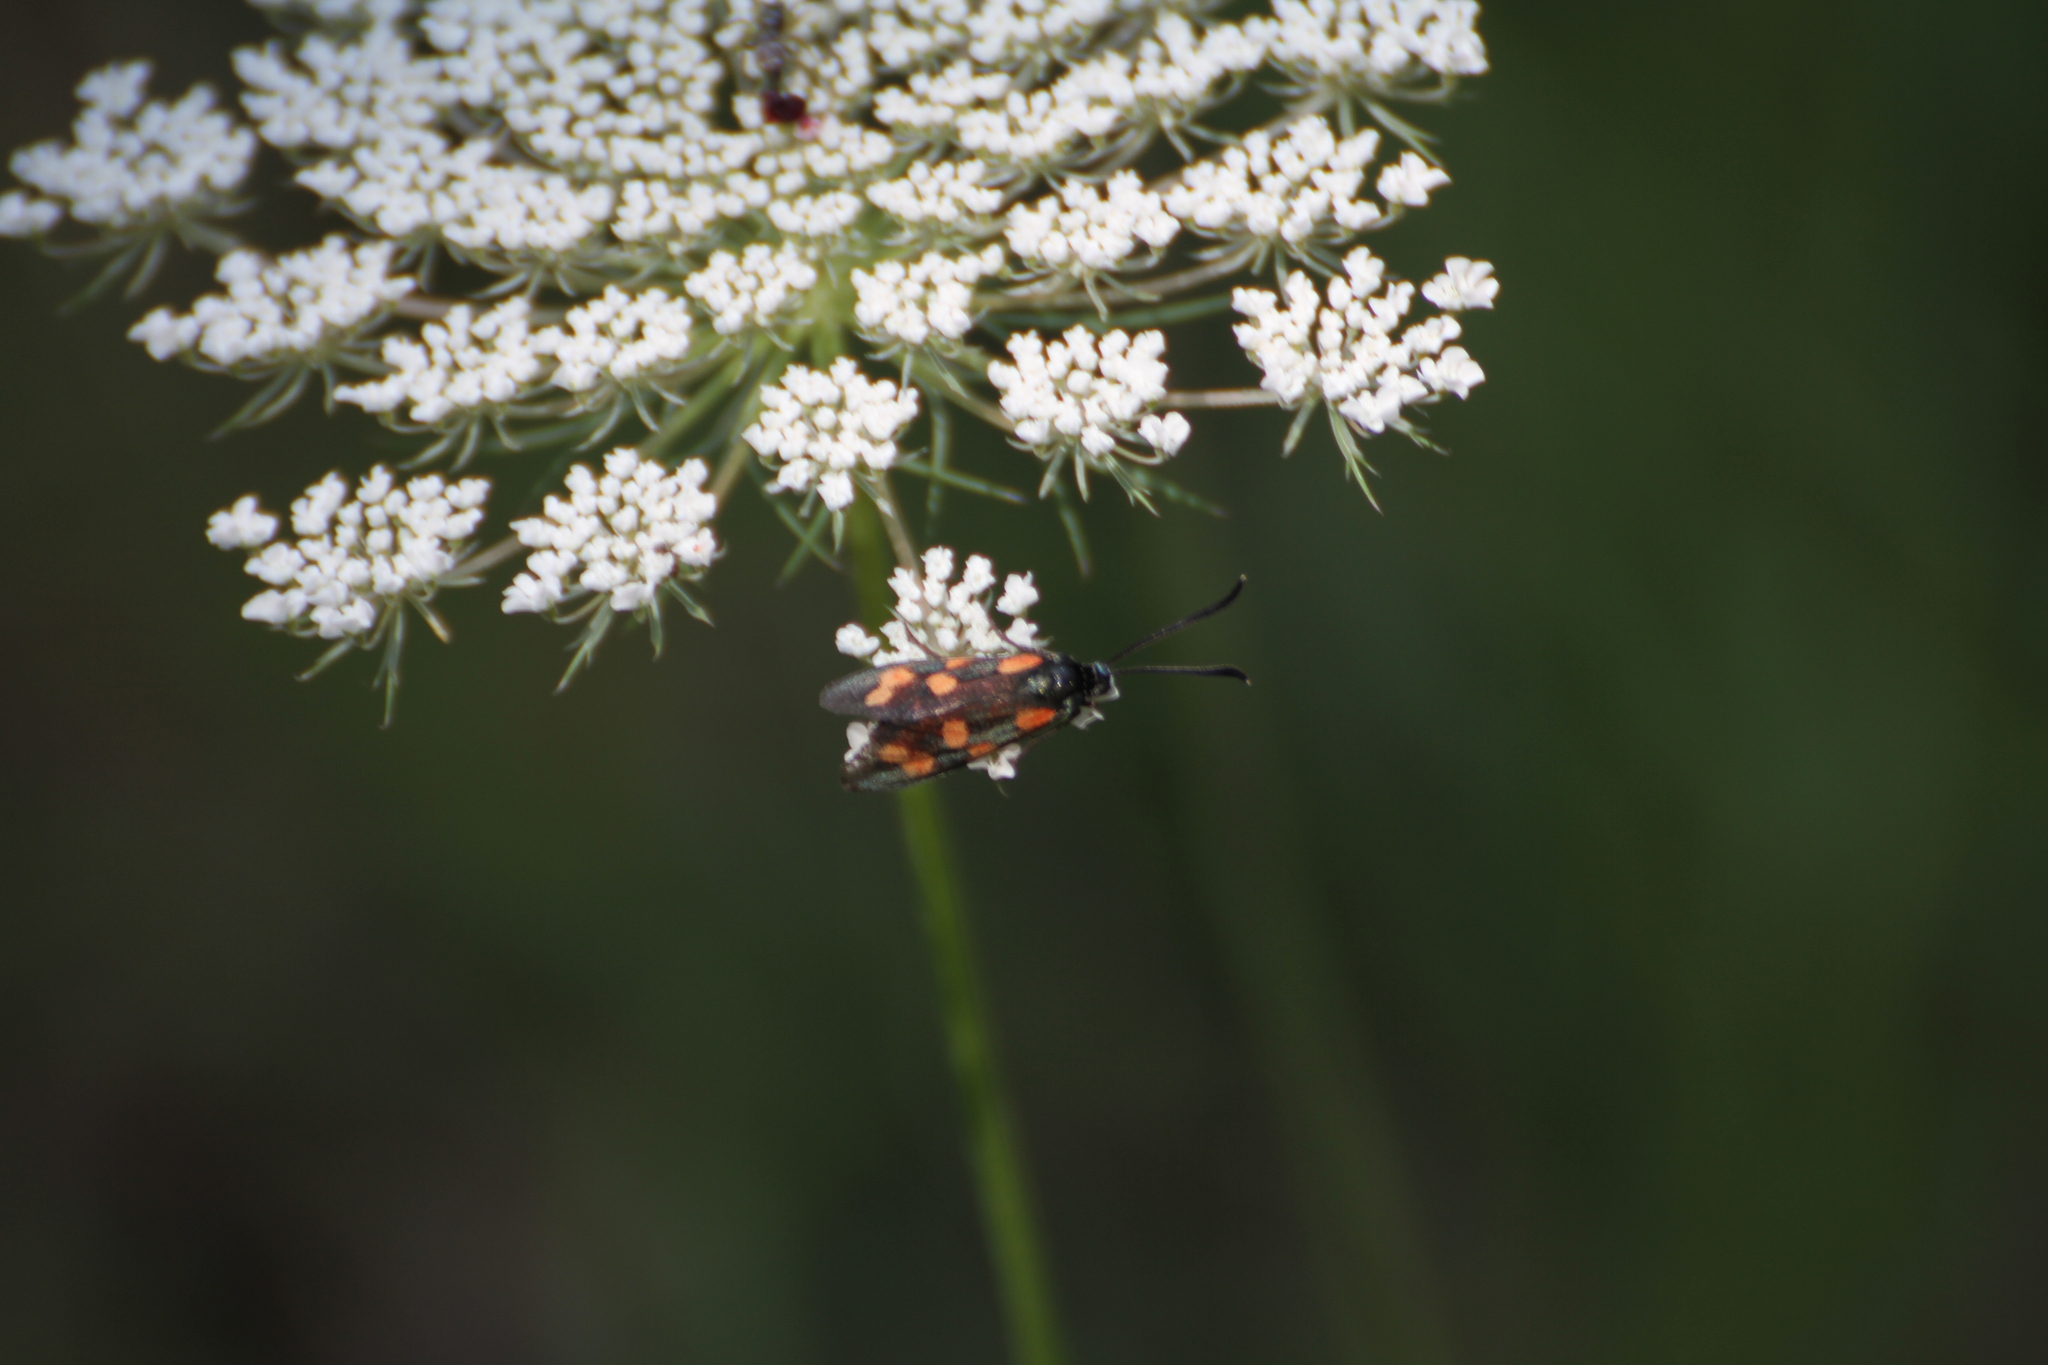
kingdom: Animalia
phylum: Arthropoda
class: Insecta
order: Lepidoptera
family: Zygaenidae
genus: Zygaena
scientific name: Zygaena transalpina
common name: Southern six spot burnet
